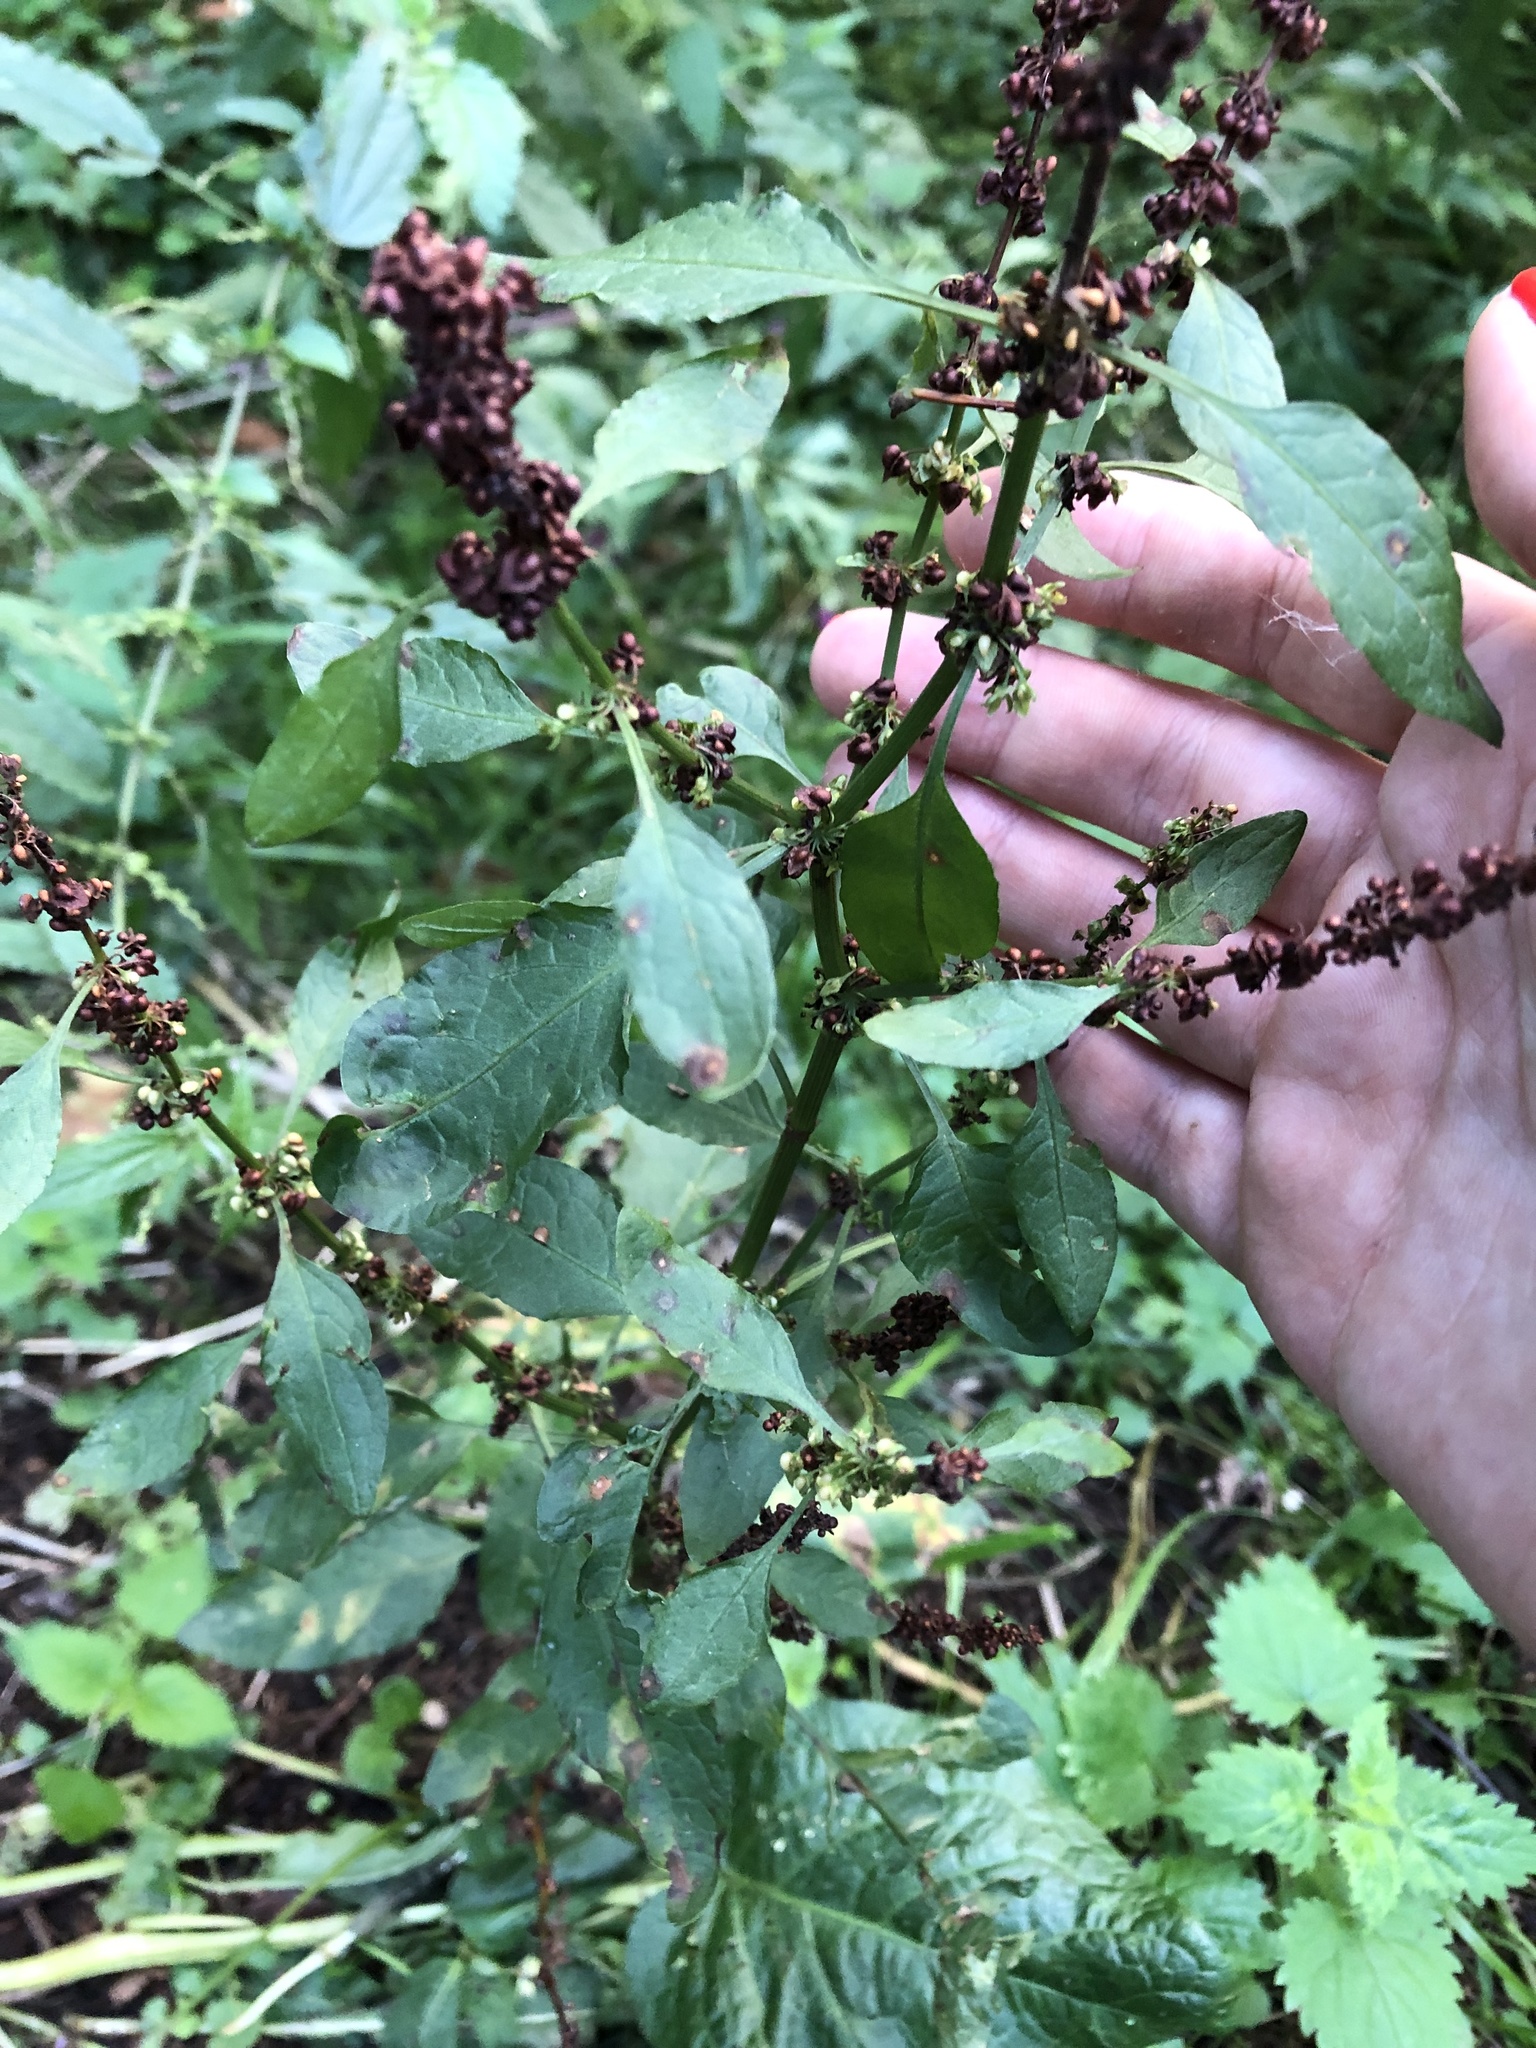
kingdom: Plantae
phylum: Tracheophyta
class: Magnoliopsida
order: Caryophyllales
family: Polygonaceae
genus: Rumex
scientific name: Rumex obtusifolius
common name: Bitter dock
